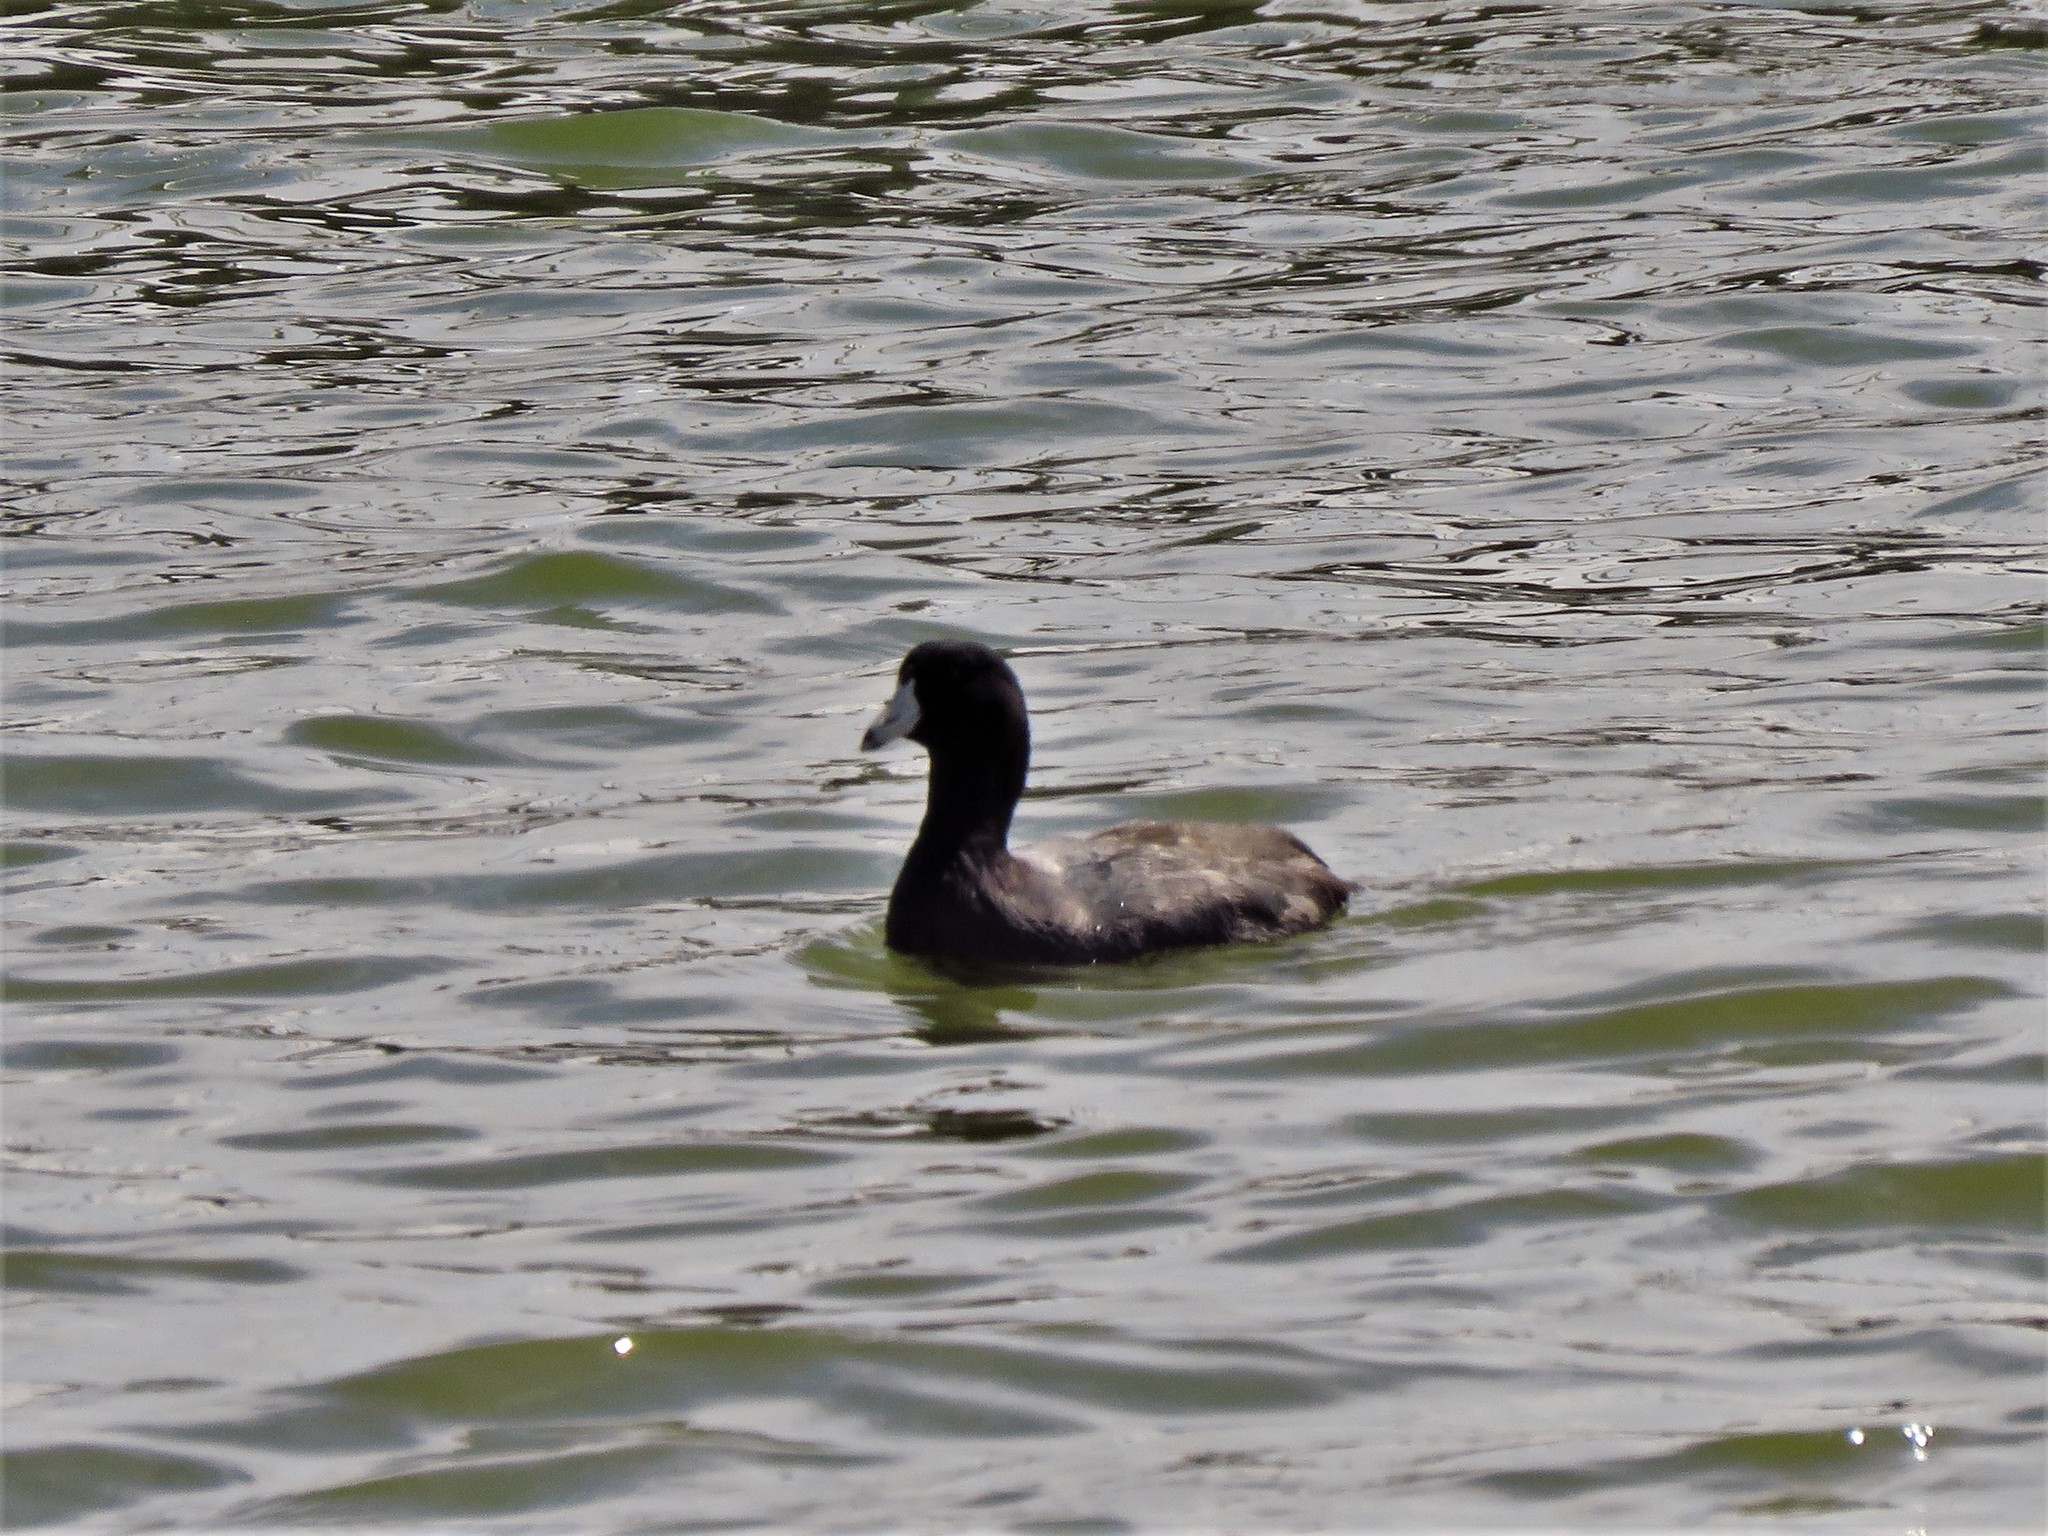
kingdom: Animalia
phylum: Chordata
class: Aves
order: Gruiformes
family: Rallidae
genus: Fulica
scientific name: Fulica americana
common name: American coot
